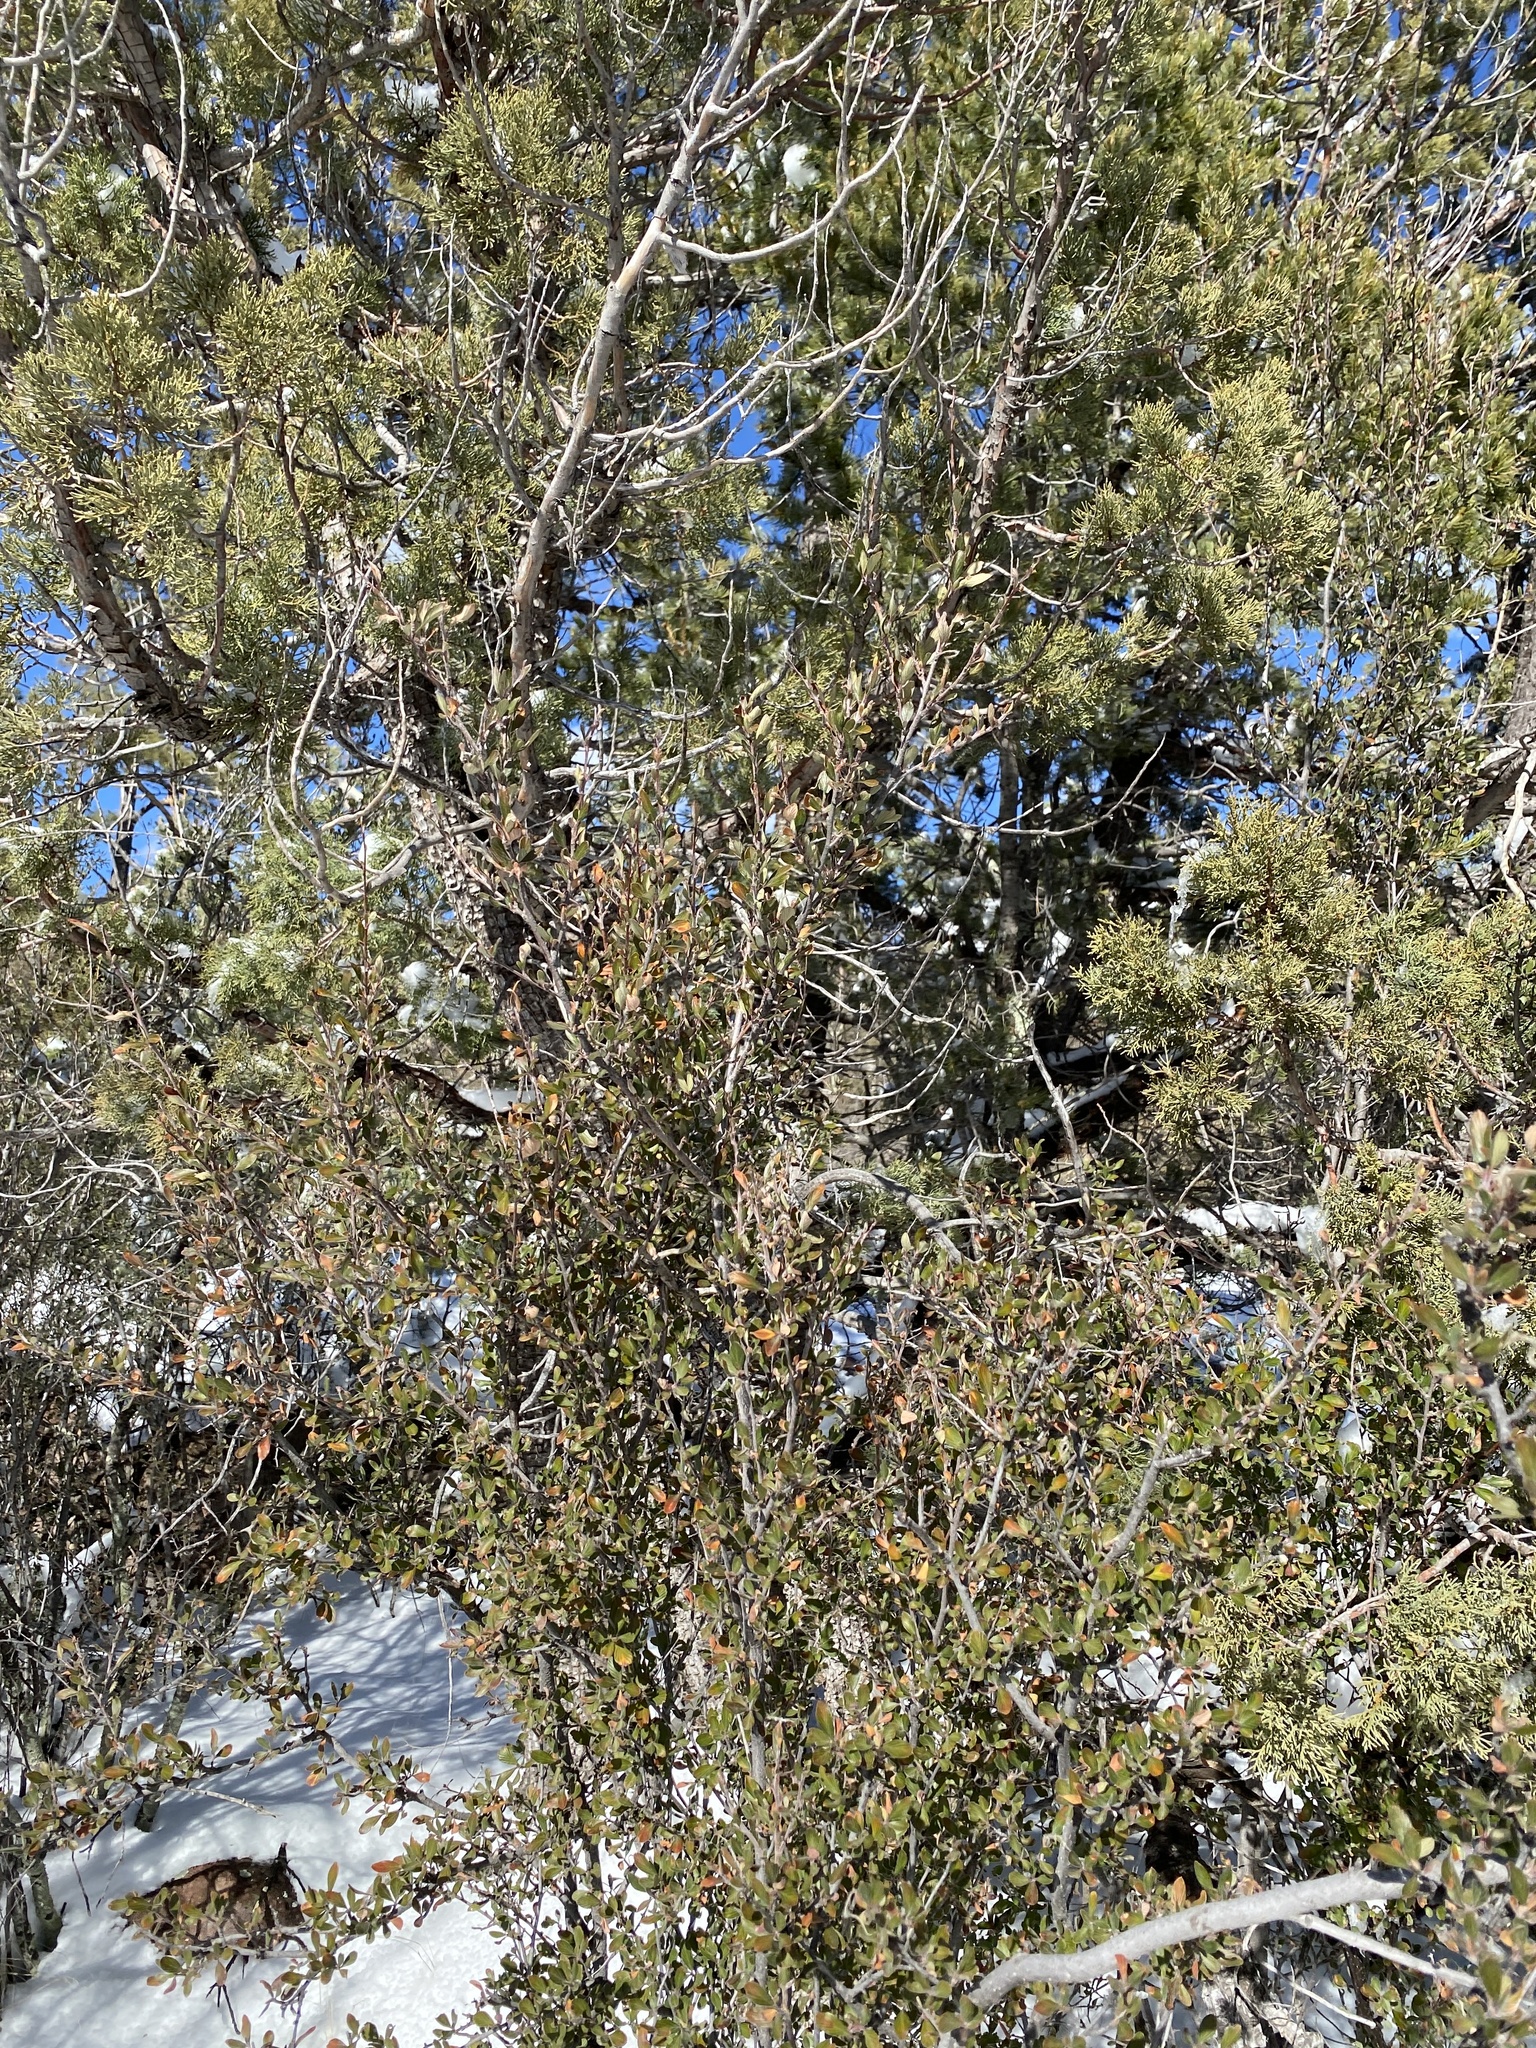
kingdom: Plantae
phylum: Tracheophyta
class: Magnoliopsida
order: Rosales
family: Rosaceae
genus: Cercocarpus
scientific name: Cercocarpus breviflorus
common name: Wright's mountain-mahogany
